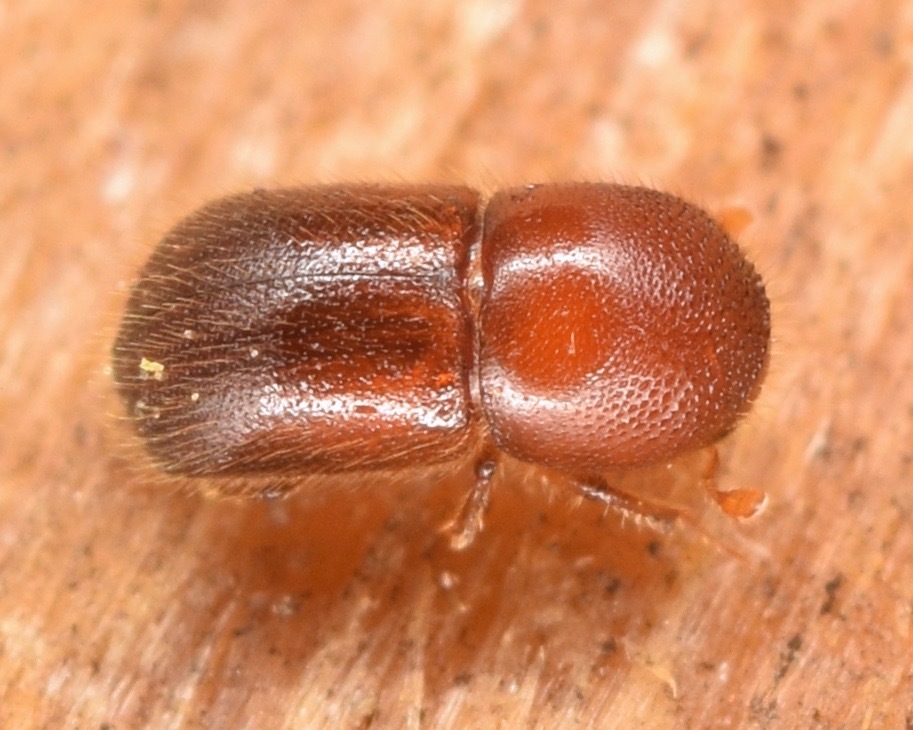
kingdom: Animalia
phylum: Arthropoda
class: Insecta
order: Coleoptera
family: Curculionidae
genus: Xylosandrus
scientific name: Xylosandrus crassiusculus
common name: Granulate ambrosia beetle
